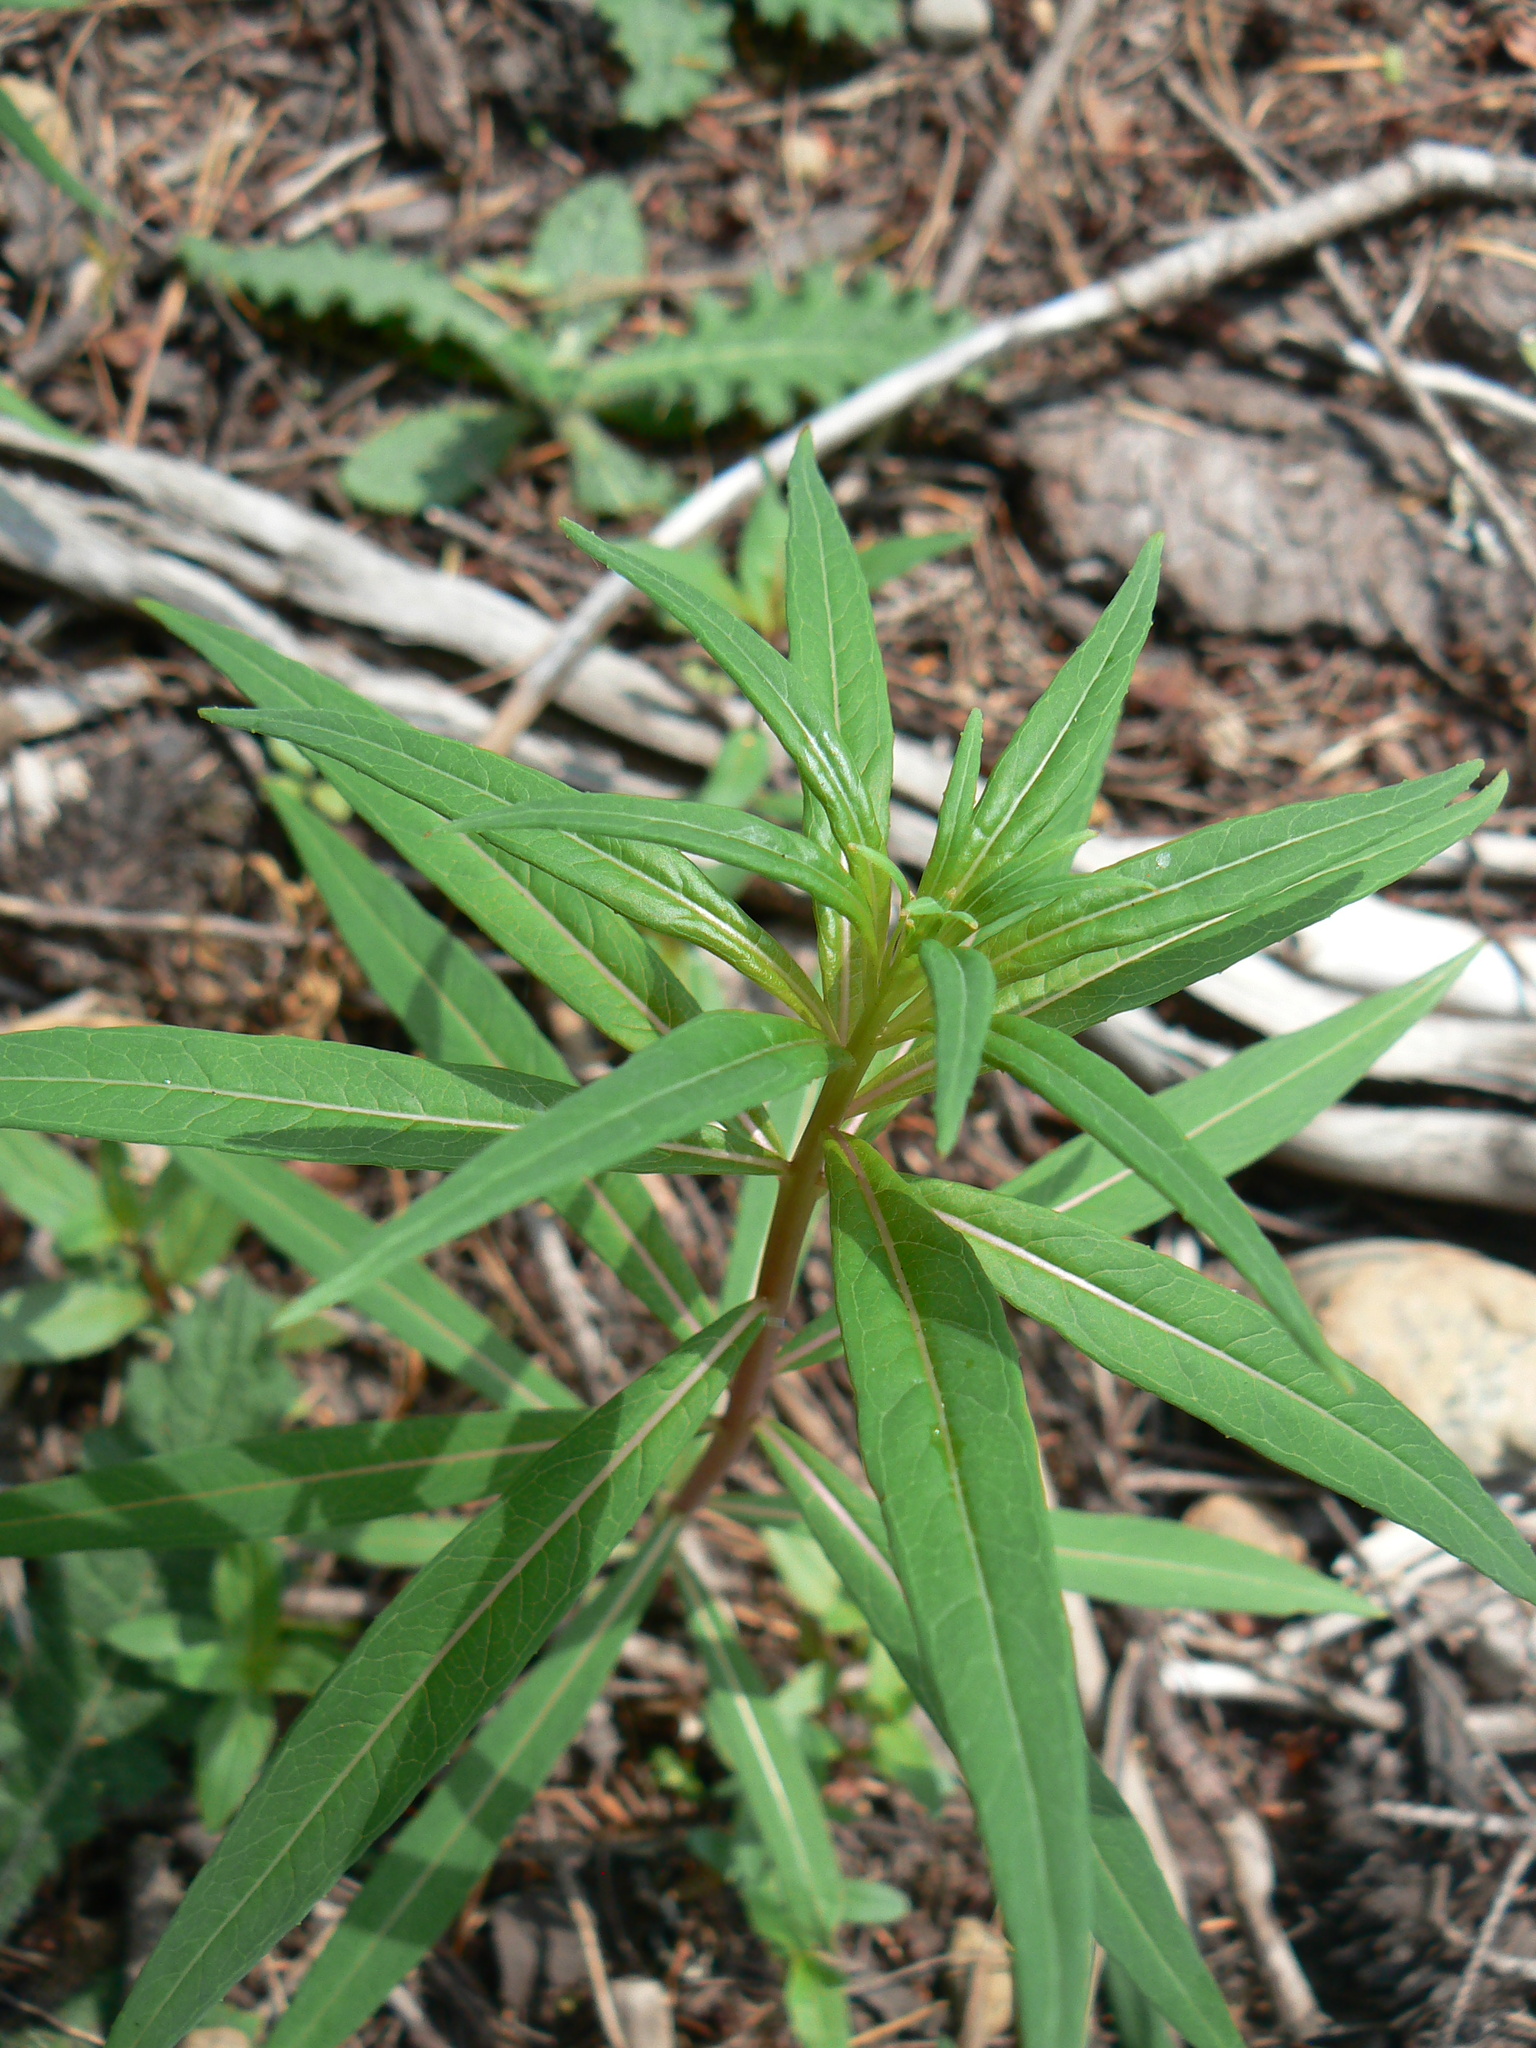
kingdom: Plantae
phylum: Tracheophyta
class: Magnoliopsida
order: Myrtales
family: Onagraceae
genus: Chamaenerion
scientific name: Chamaenerion angustifolium
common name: Fireweed
